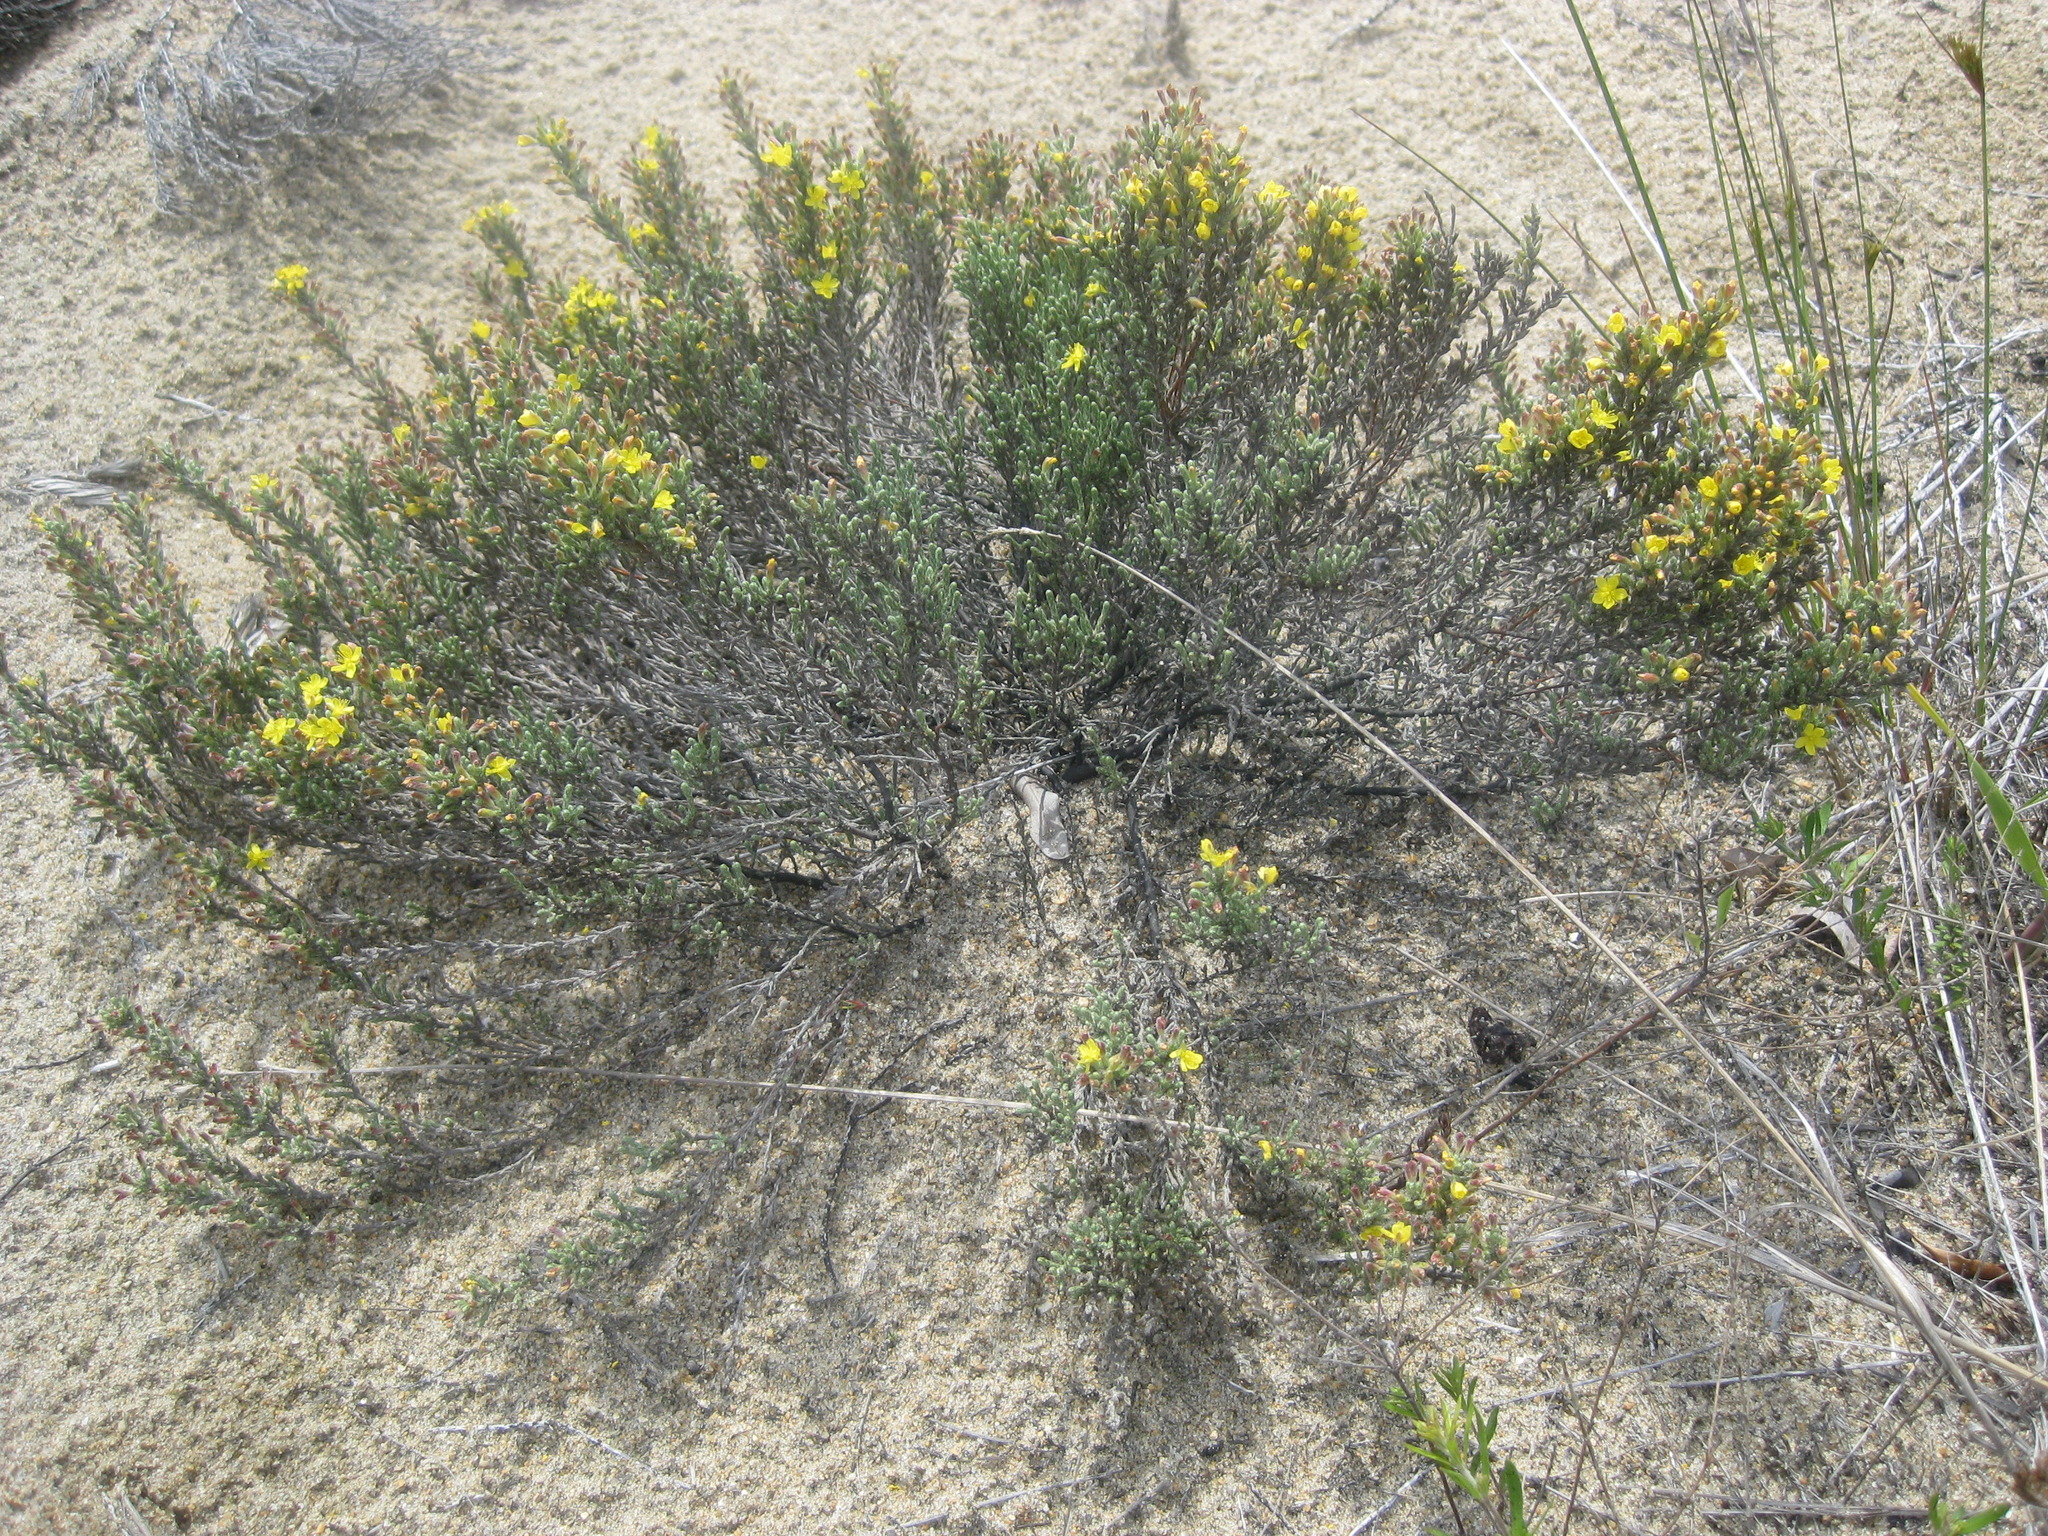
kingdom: Plantae
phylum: Tracheophyta
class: Magnoliopsida
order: Malvales
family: Cistaceae
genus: Hudsonia
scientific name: Hudsonia tomentosa
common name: Beach-heath
